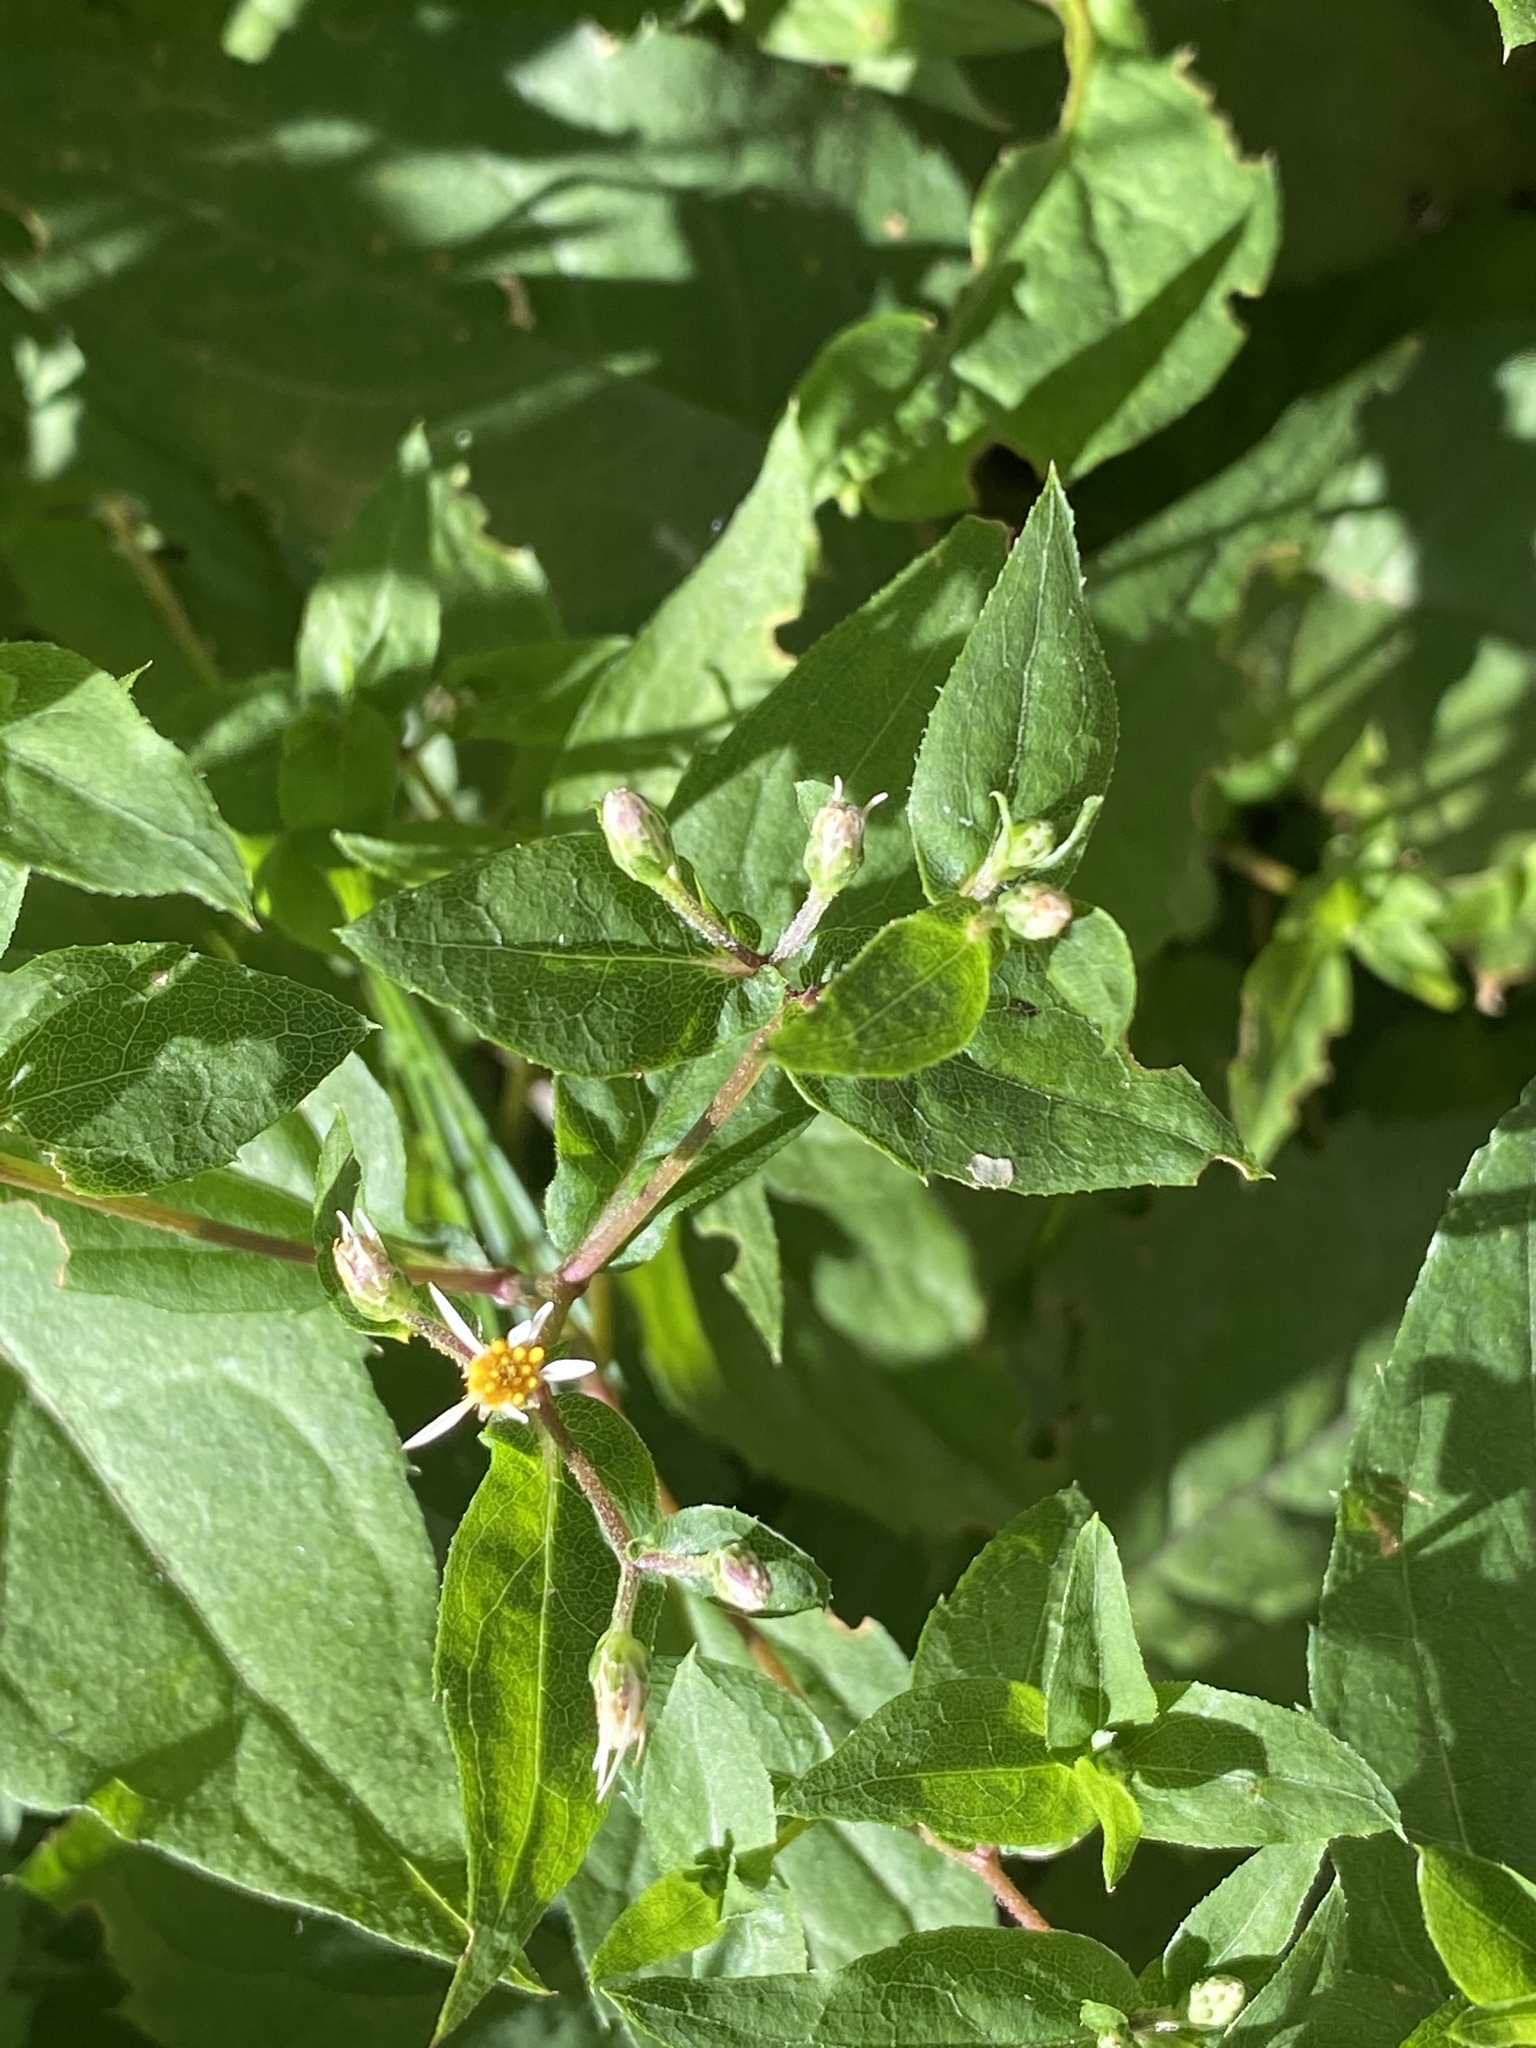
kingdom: Plantae
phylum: Tracheophyta
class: Magnoliopsida
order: Asterales
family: Asteraceae
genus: Eurybia
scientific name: Eurybia divaricata
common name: White wood aster
